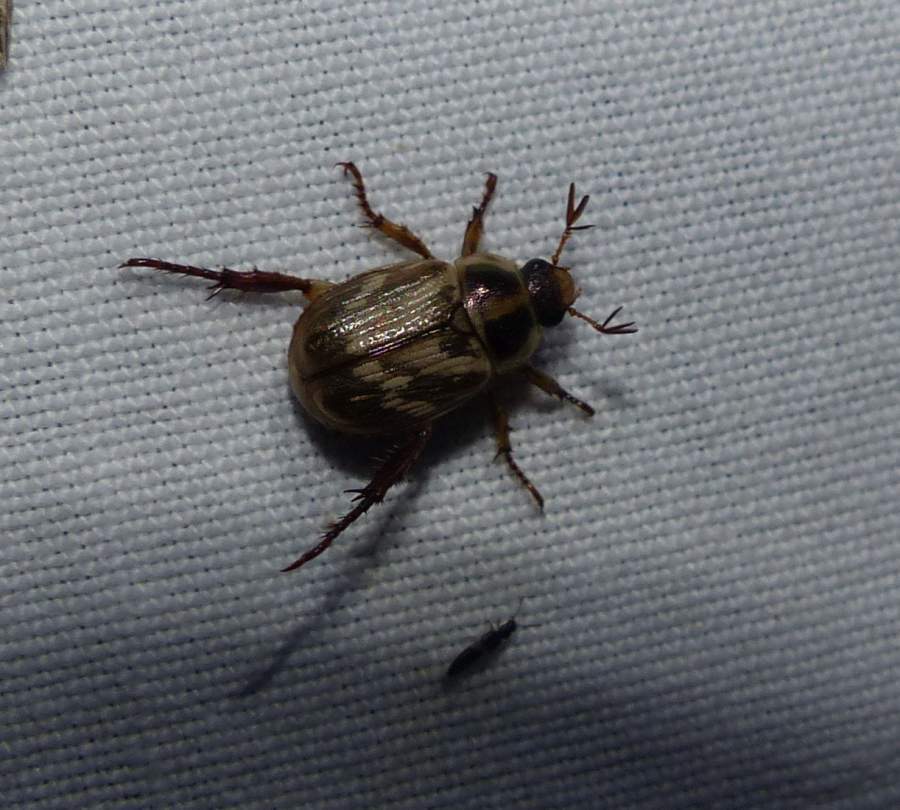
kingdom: Animalia
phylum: Arthropoda
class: Insecta
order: Coleoptera
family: Scarabaeidae
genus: Exomala
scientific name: Exomala orientalis
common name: Oriental beetle
